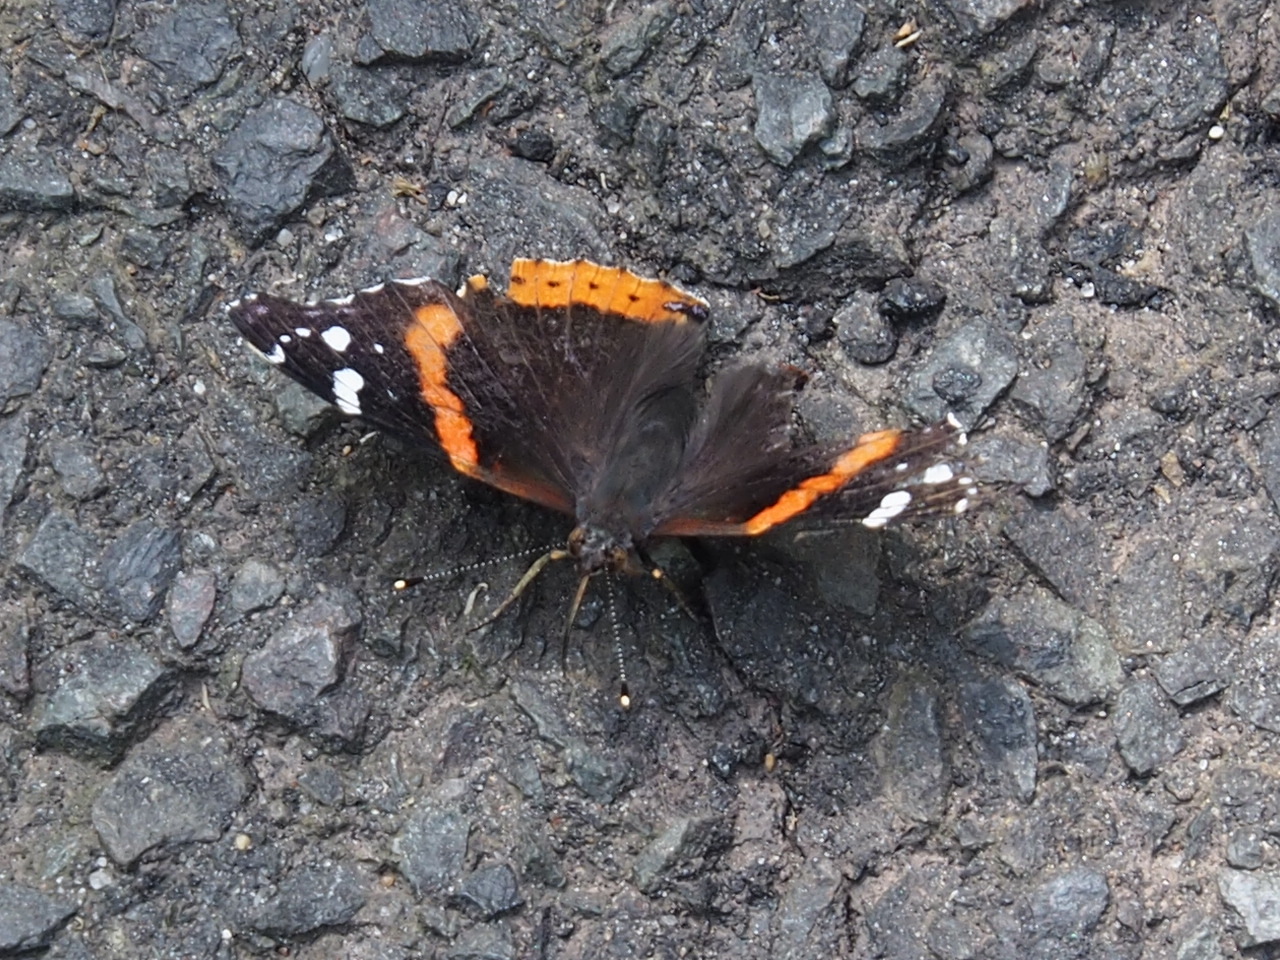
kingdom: Animalia
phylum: Arthropoda
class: Insecta
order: Lepidoptera
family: Nymphalidae
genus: Vanessa
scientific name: Vanessa atalanta
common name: Red admiral
